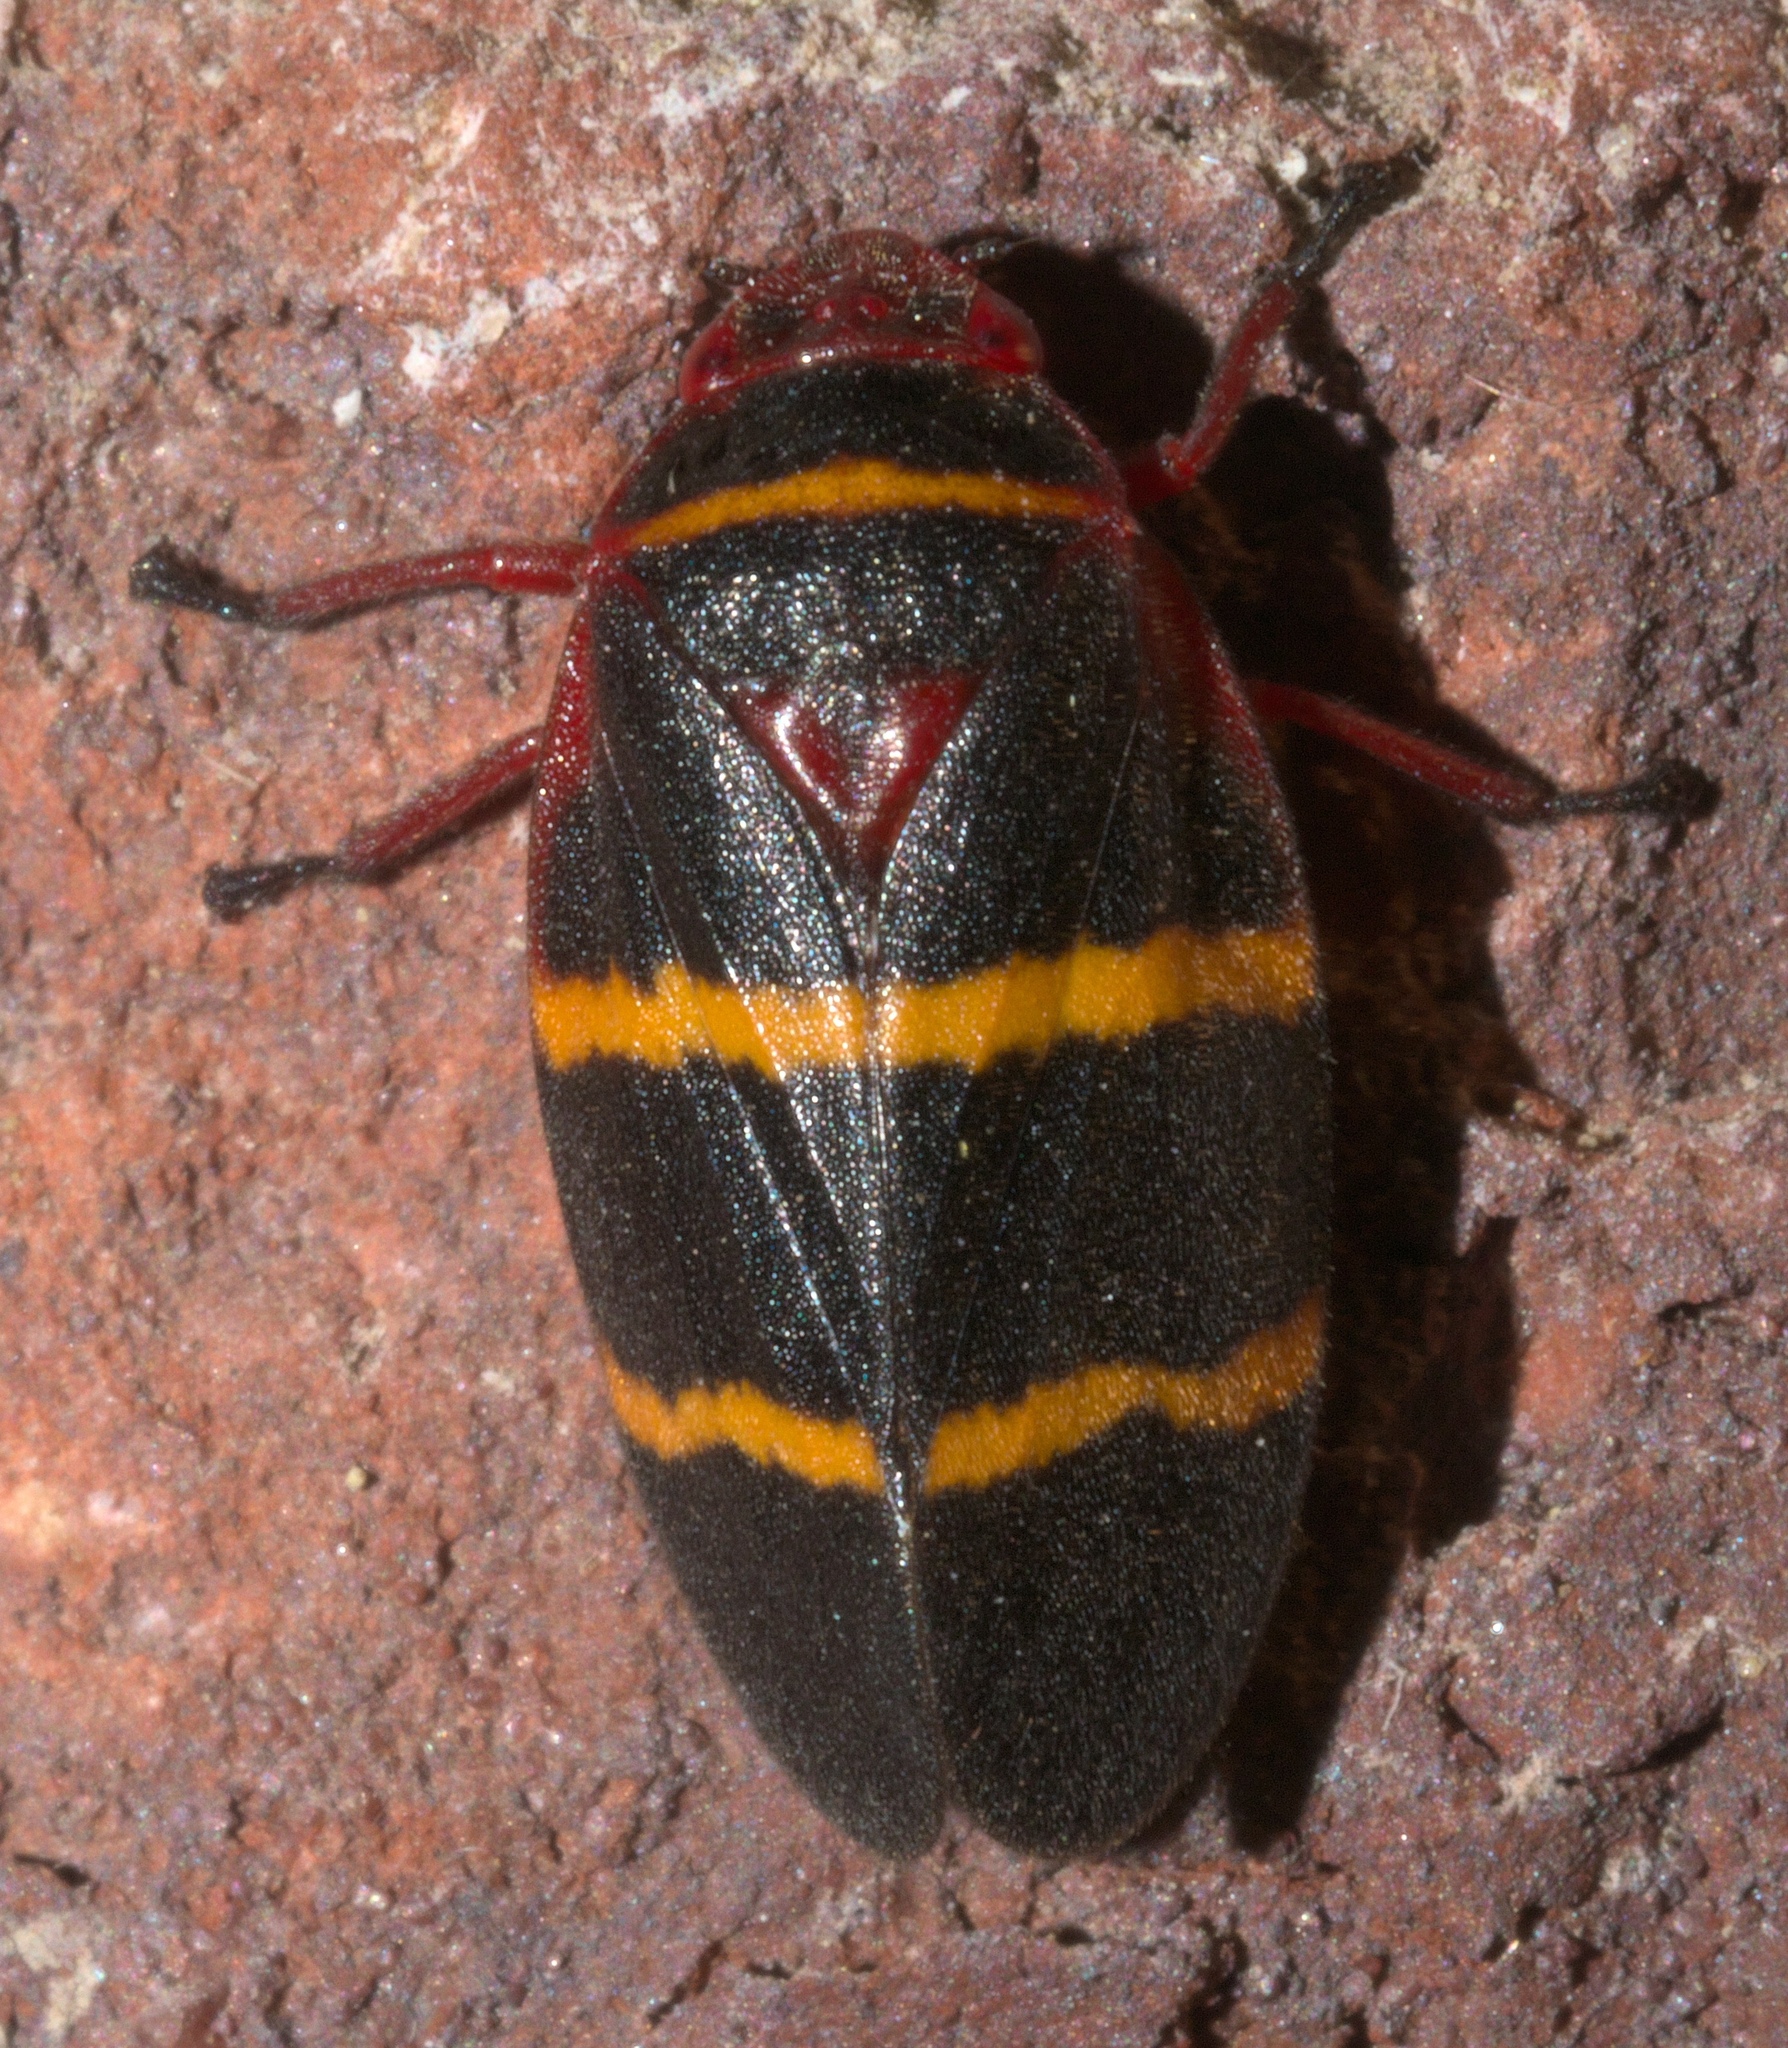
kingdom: Animalia
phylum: Arthropoda
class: Insecta
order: Hemiptera
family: Cercopidae
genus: Prosapia
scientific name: Prosapia bicincta
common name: Twolined spittlebug
